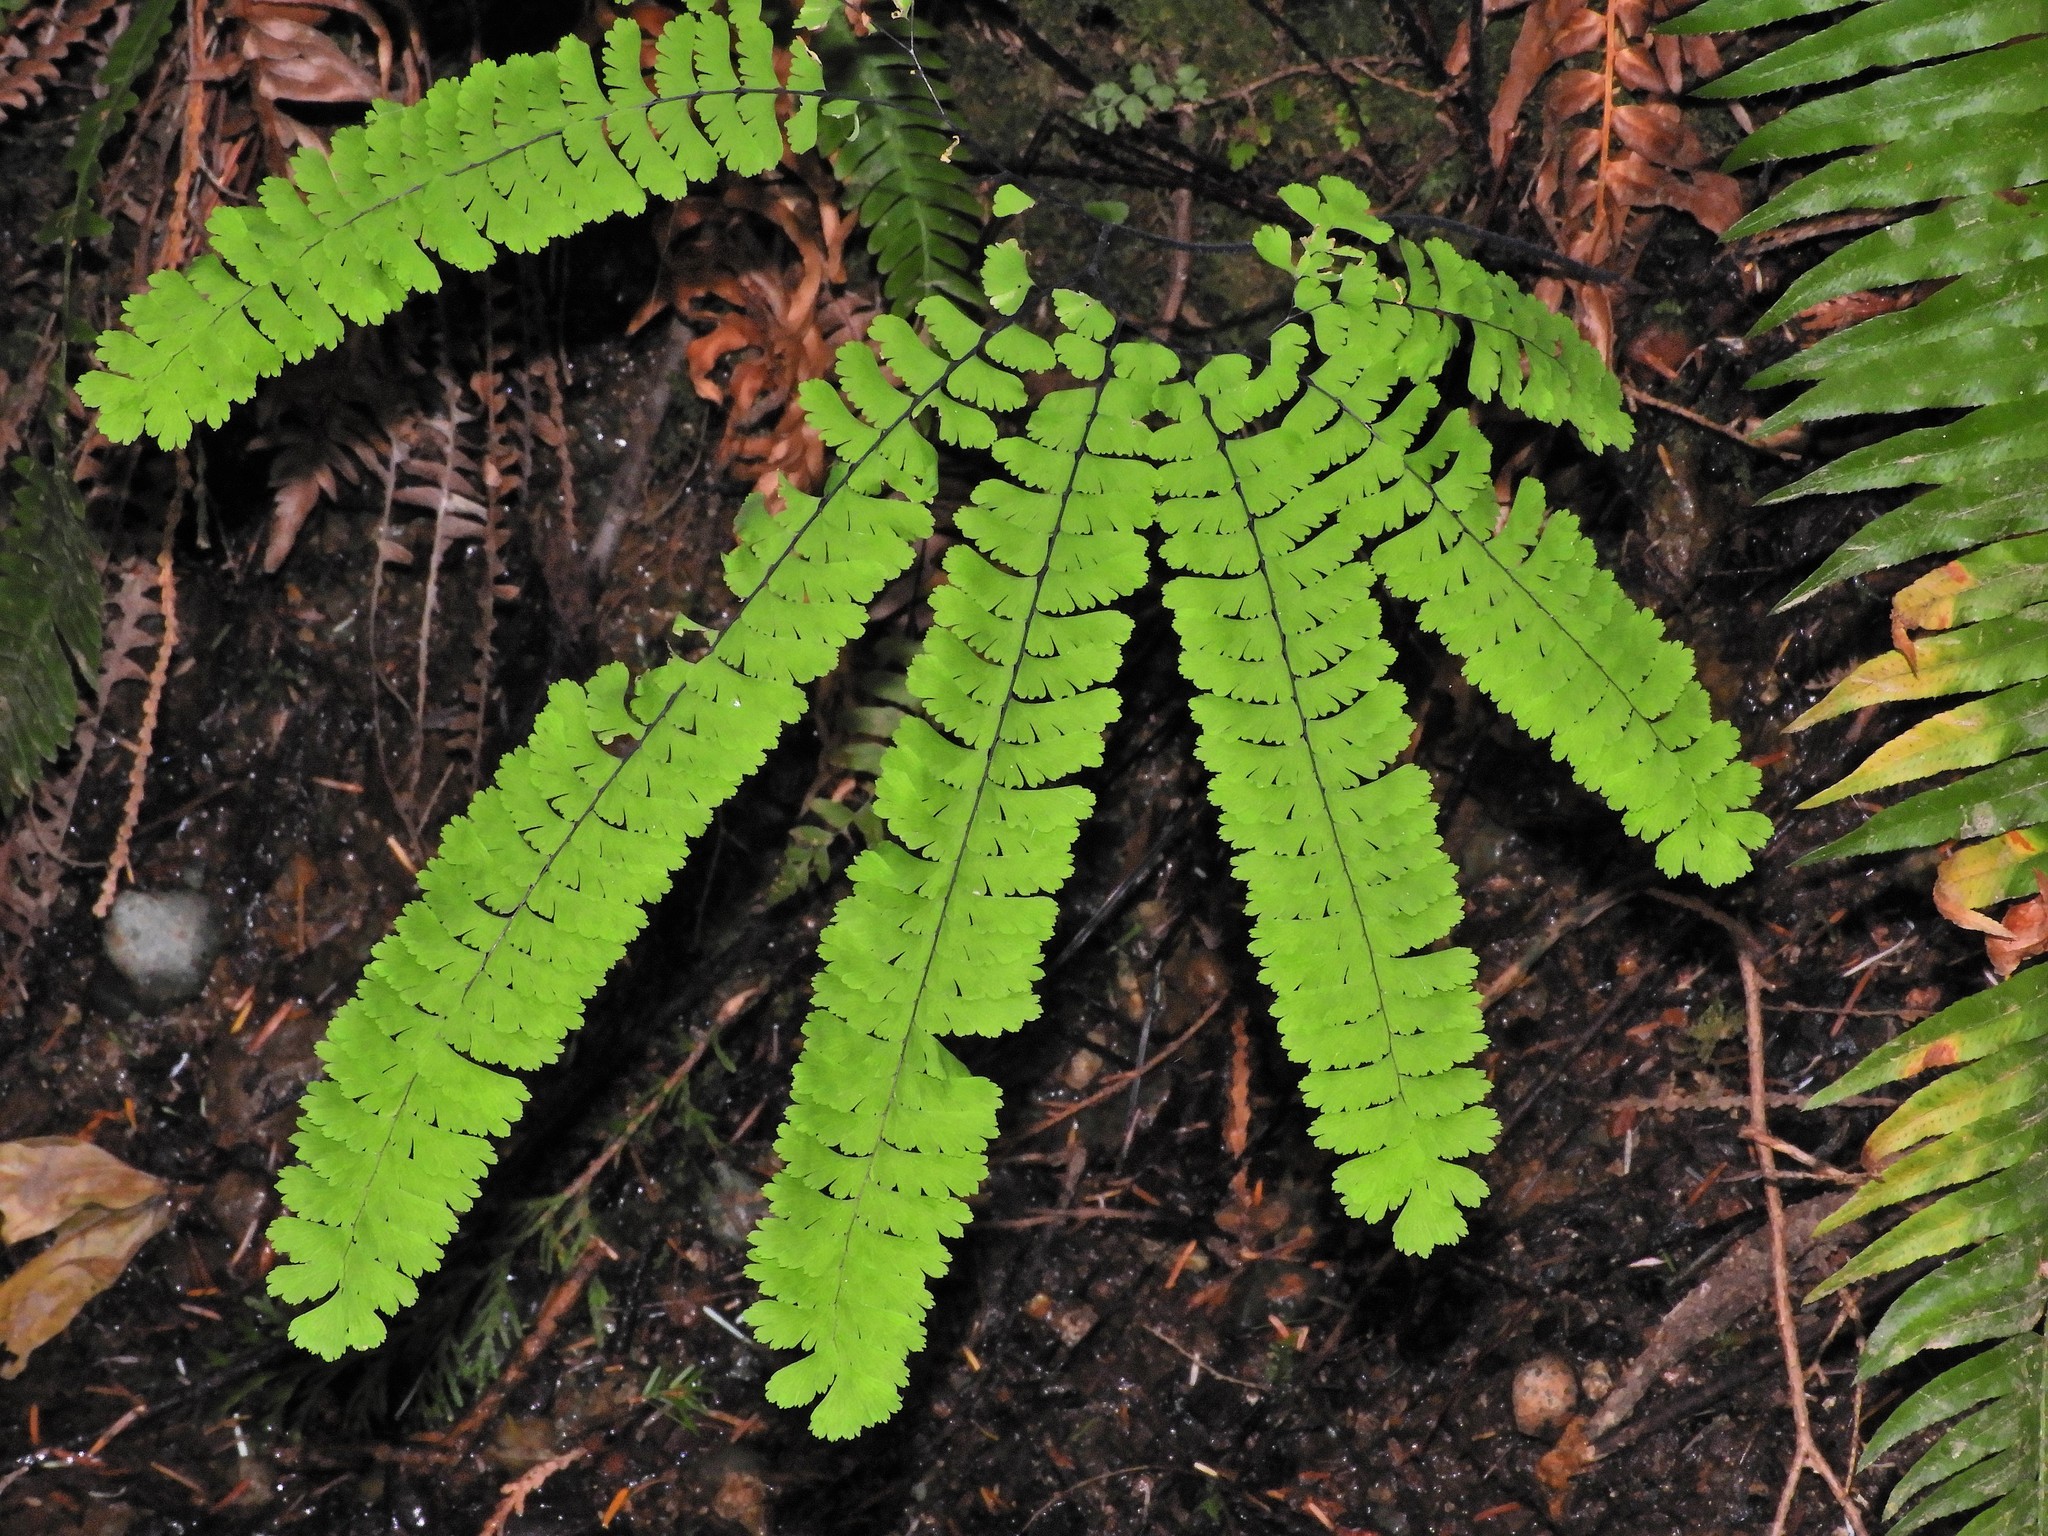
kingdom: Plantae
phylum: Tracheophyta
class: Polypodiopsida
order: Polypodiales
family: Pteridaceae
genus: Adiantum
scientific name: Adiantum aleuticum
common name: Aleutian maidenhair fern
